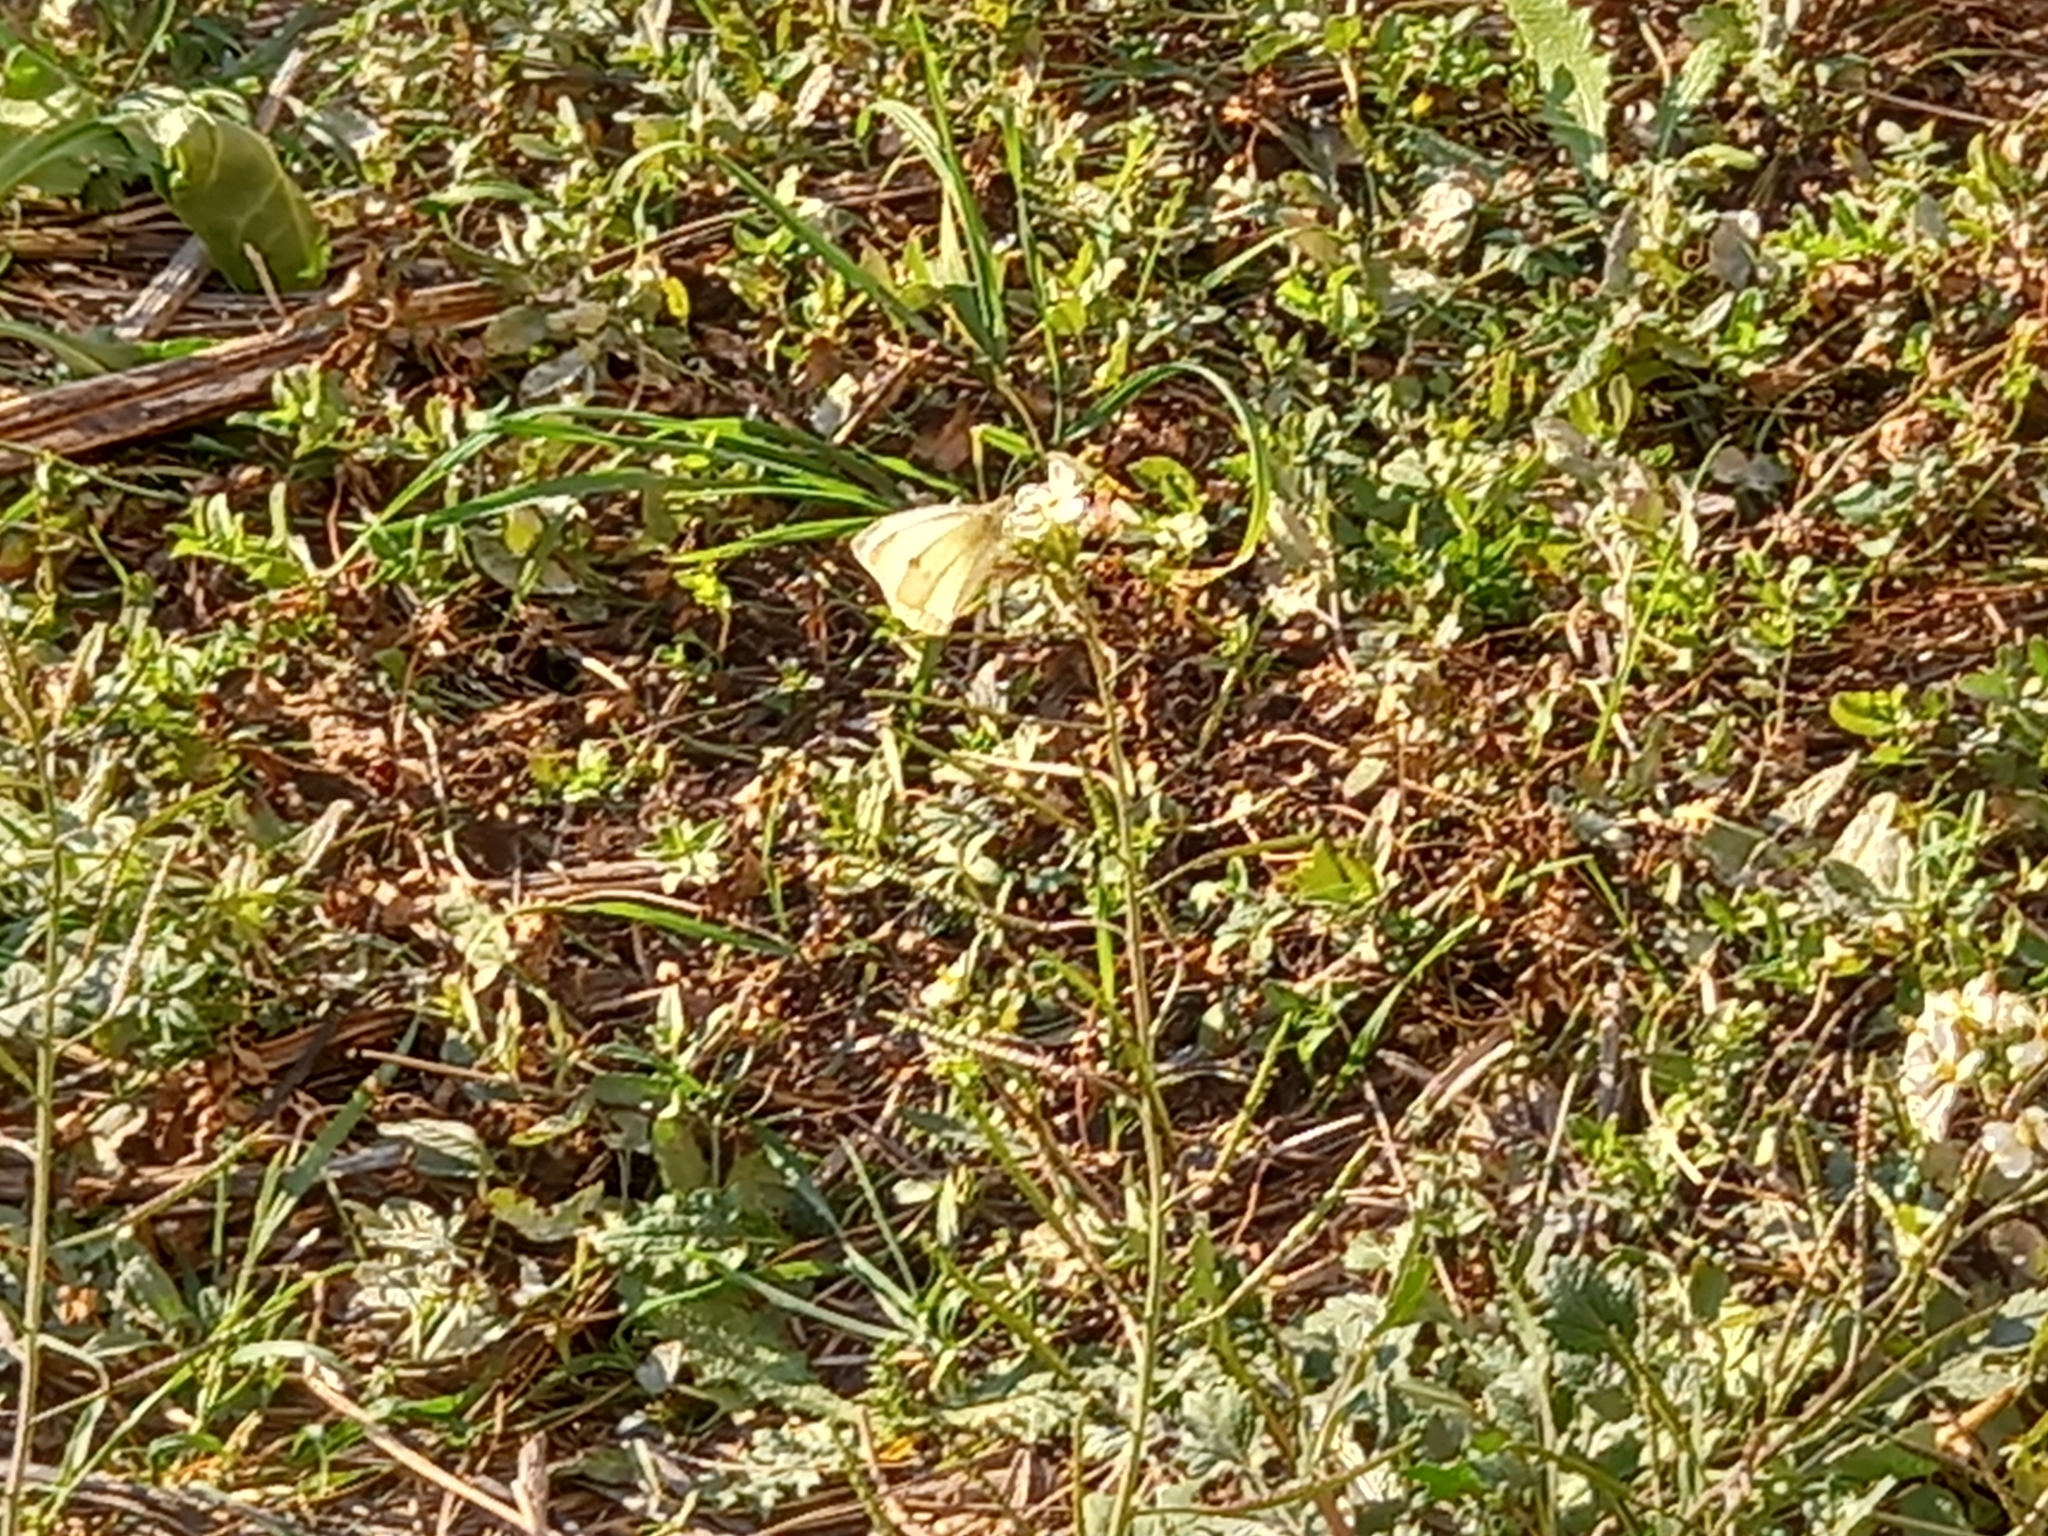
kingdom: Animalia
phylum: Arthropoda
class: Insecta
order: Lepidoptera
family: Pieridae
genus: Pieris
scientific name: Pieris rapae
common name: Small white
